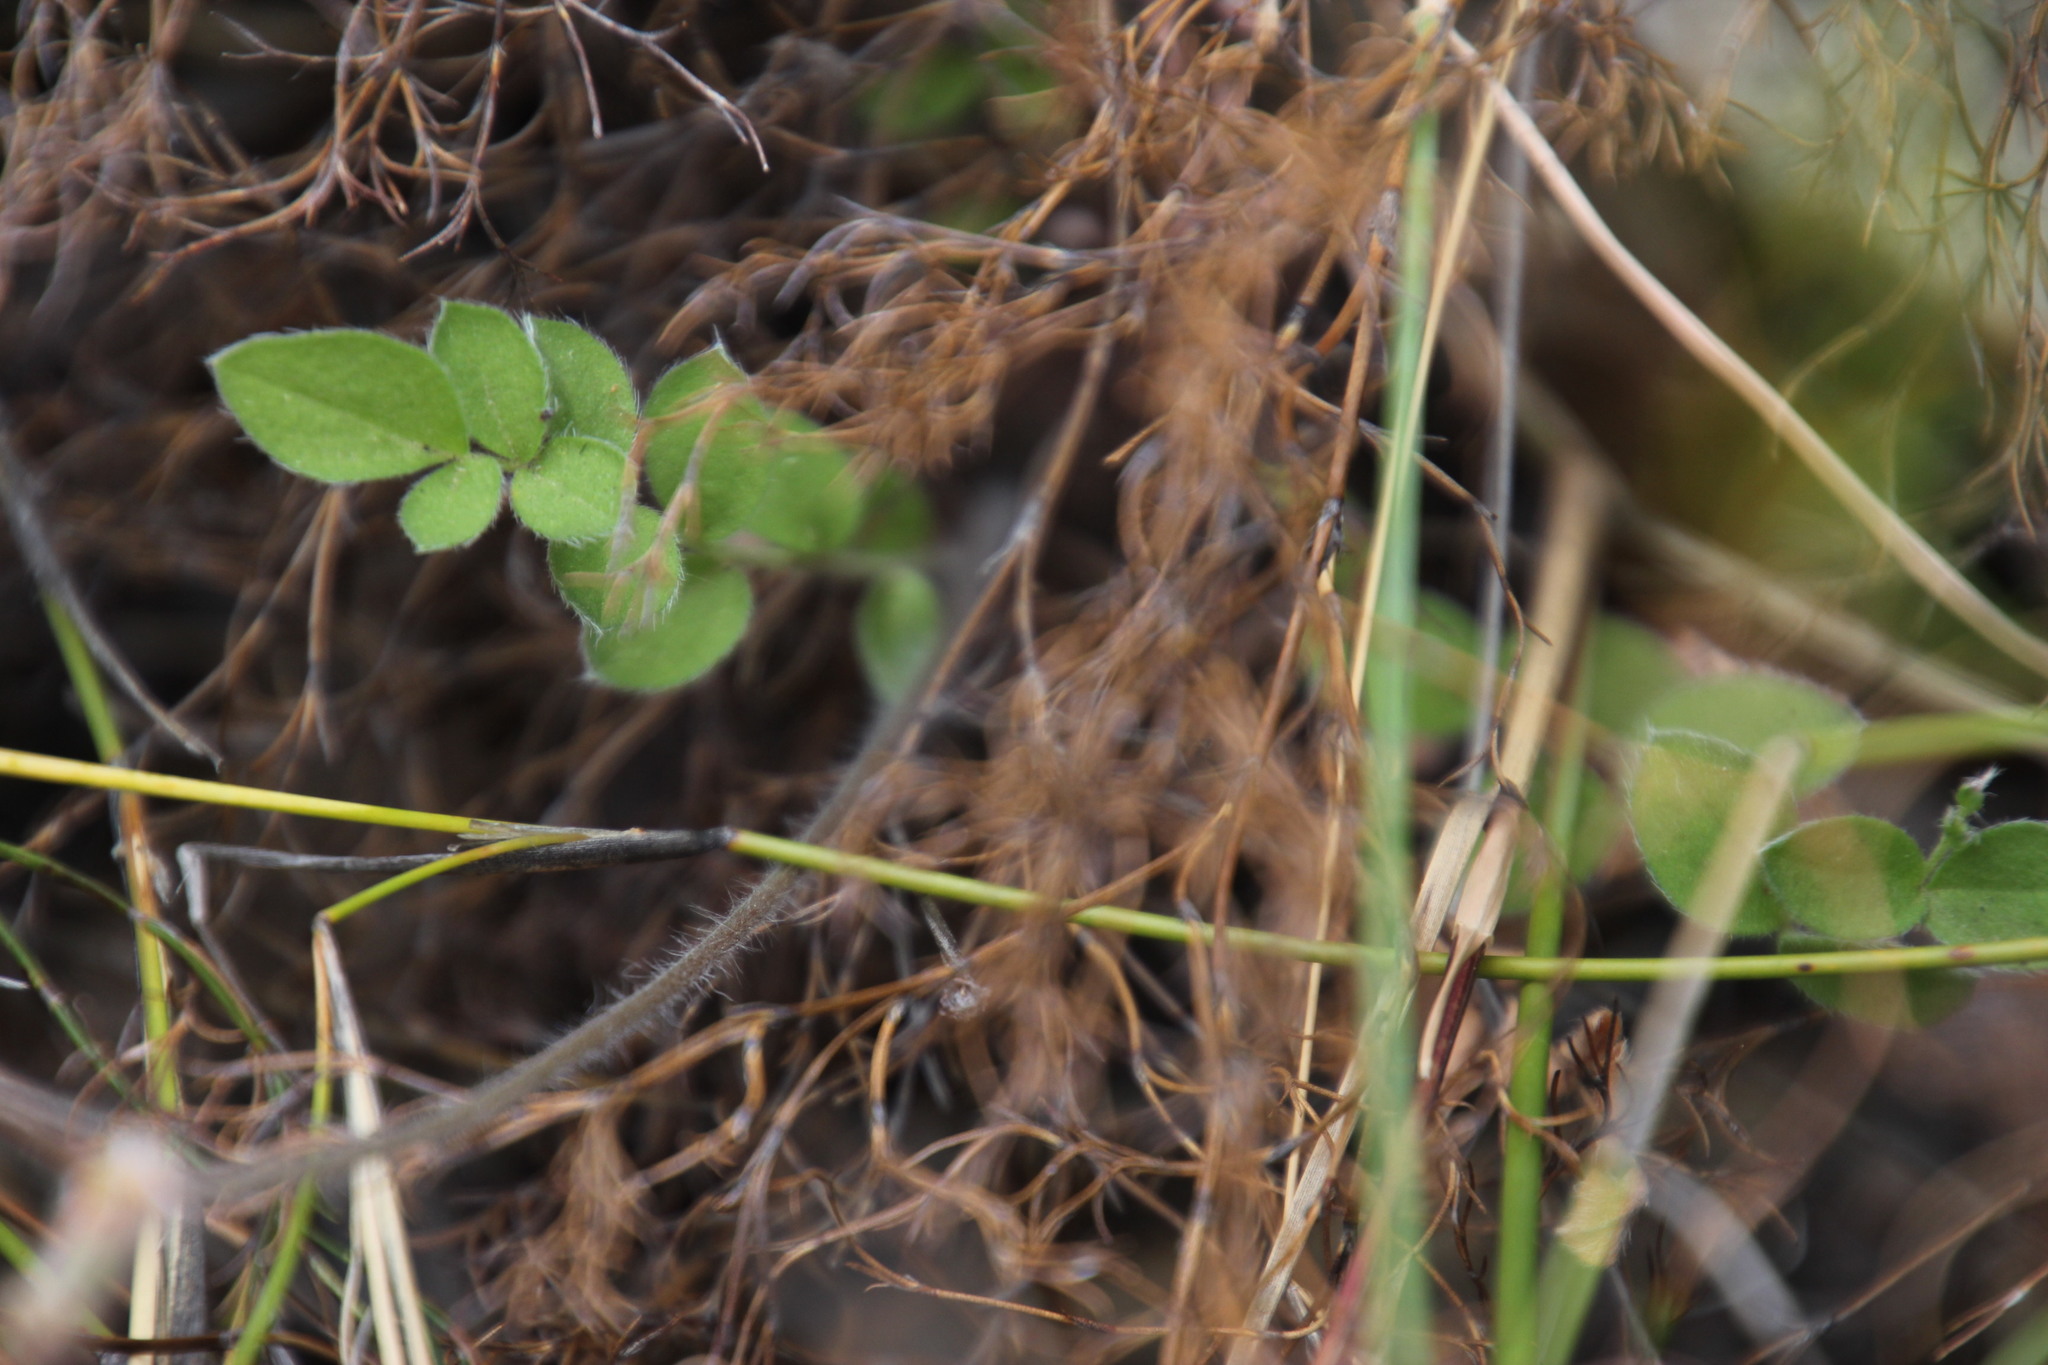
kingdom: Plantae
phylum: Tracheophyta
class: Magnoliopsida
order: Geraniales
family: Geraniaceae
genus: Pelargonium
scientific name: Pelargonium pinnatum
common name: Pinnated pelargonium
